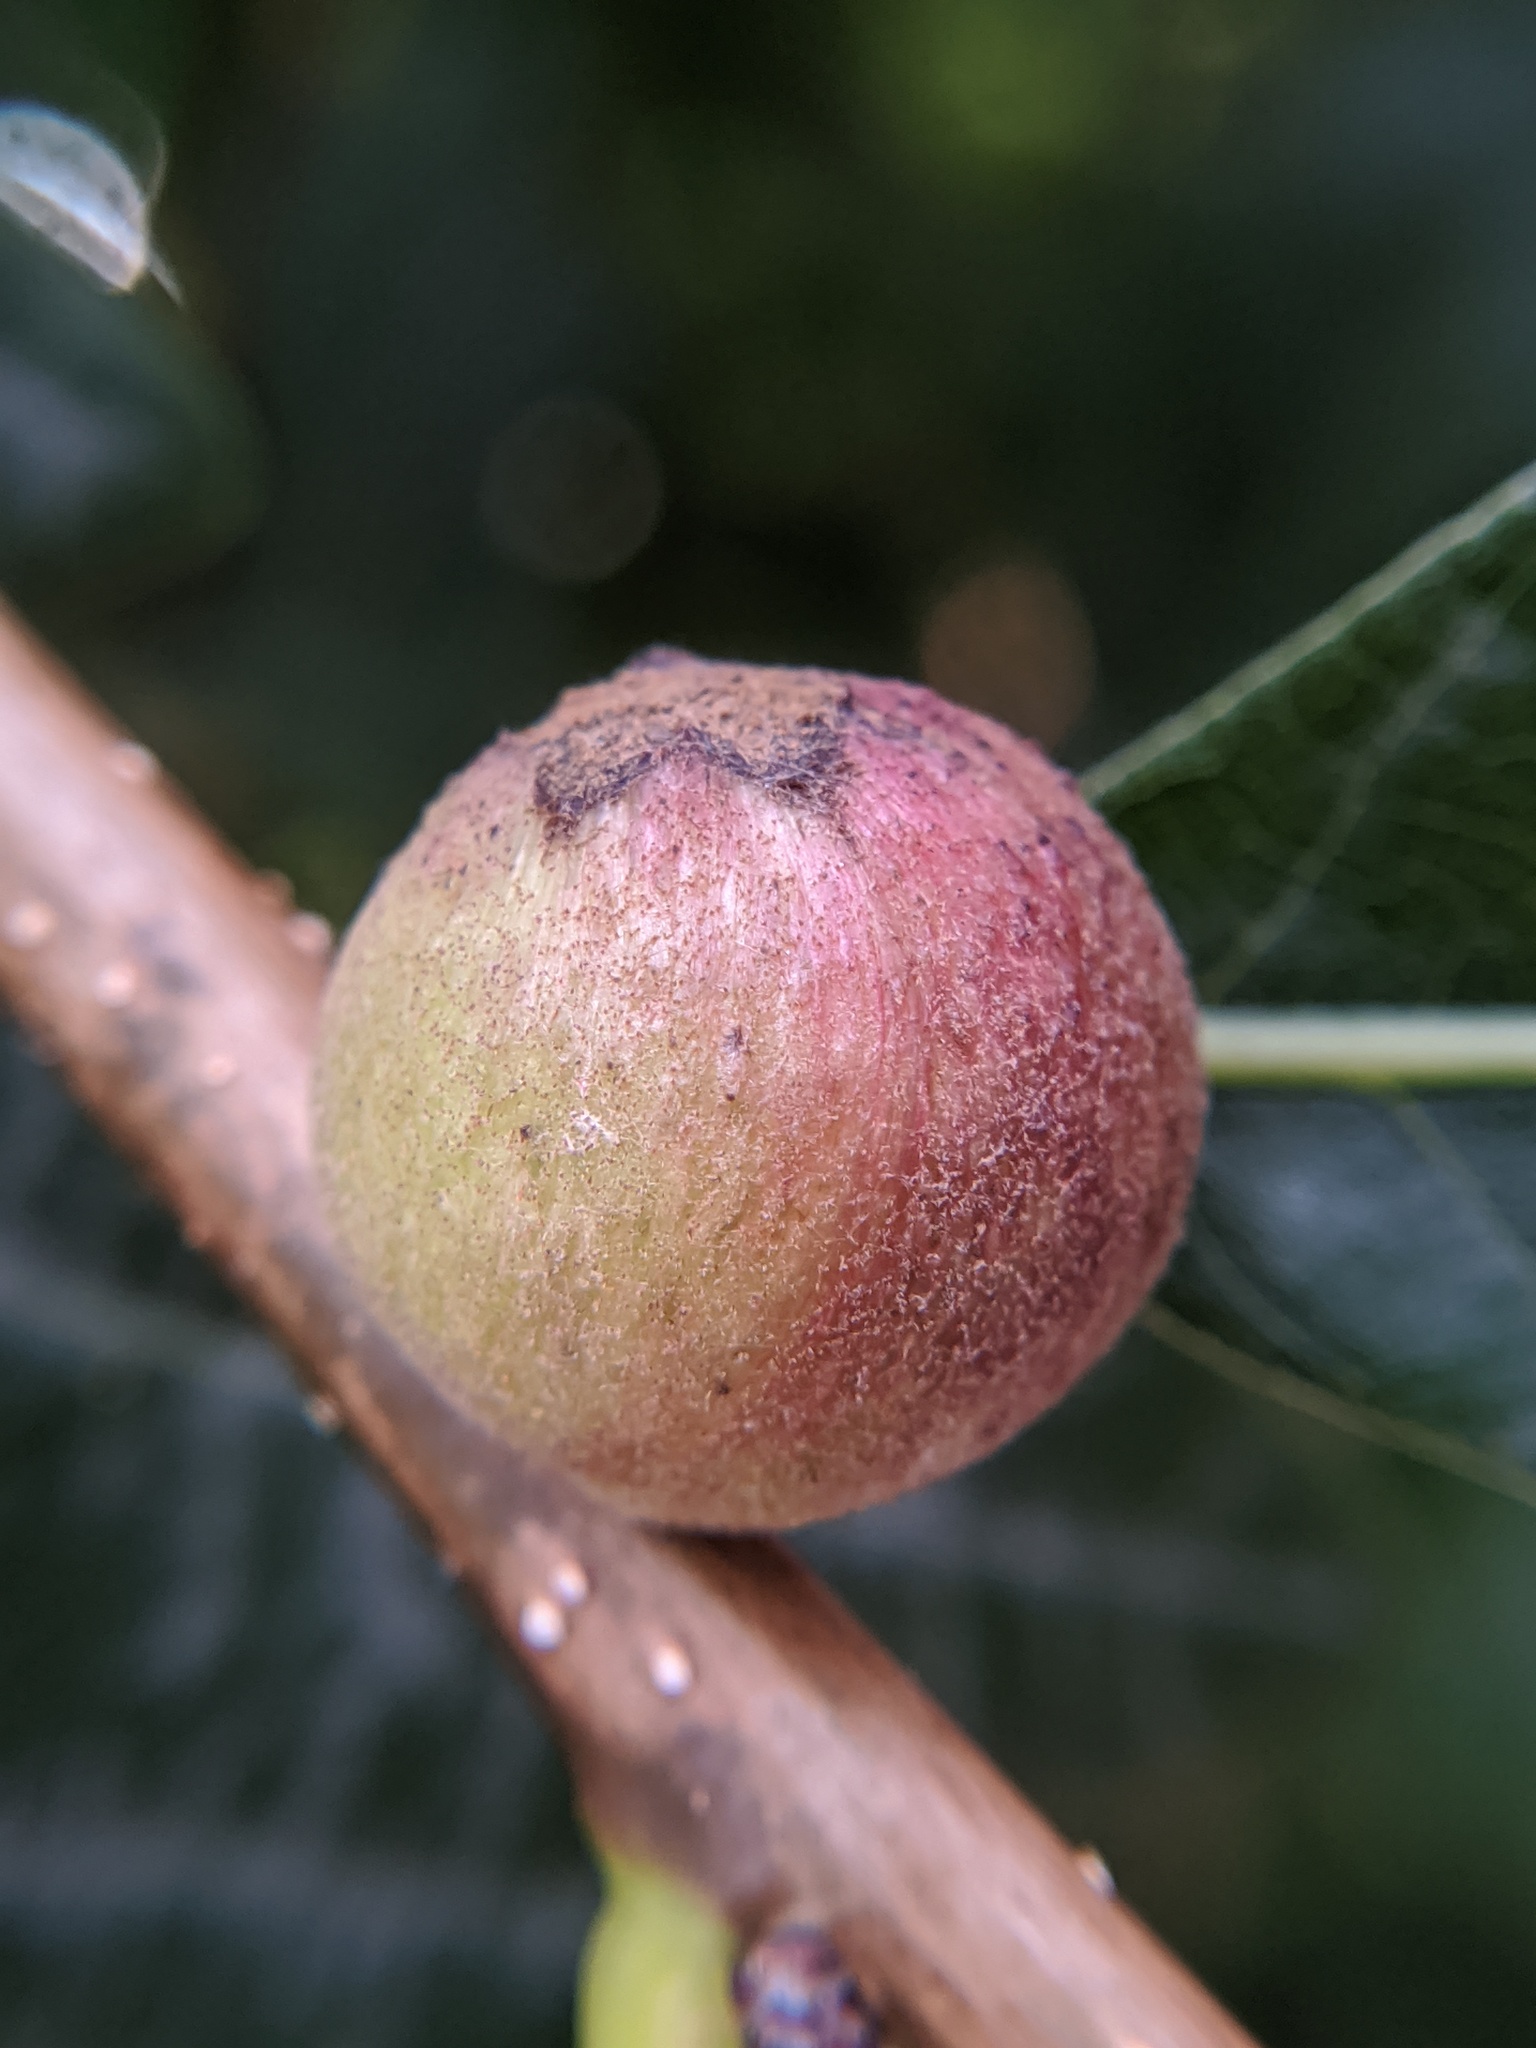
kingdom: Animalia
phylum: Arthropoda
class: Insecta
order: Hymenoptera
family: Cynipidae
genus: Disholcaspis
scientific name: Disholcaspis
